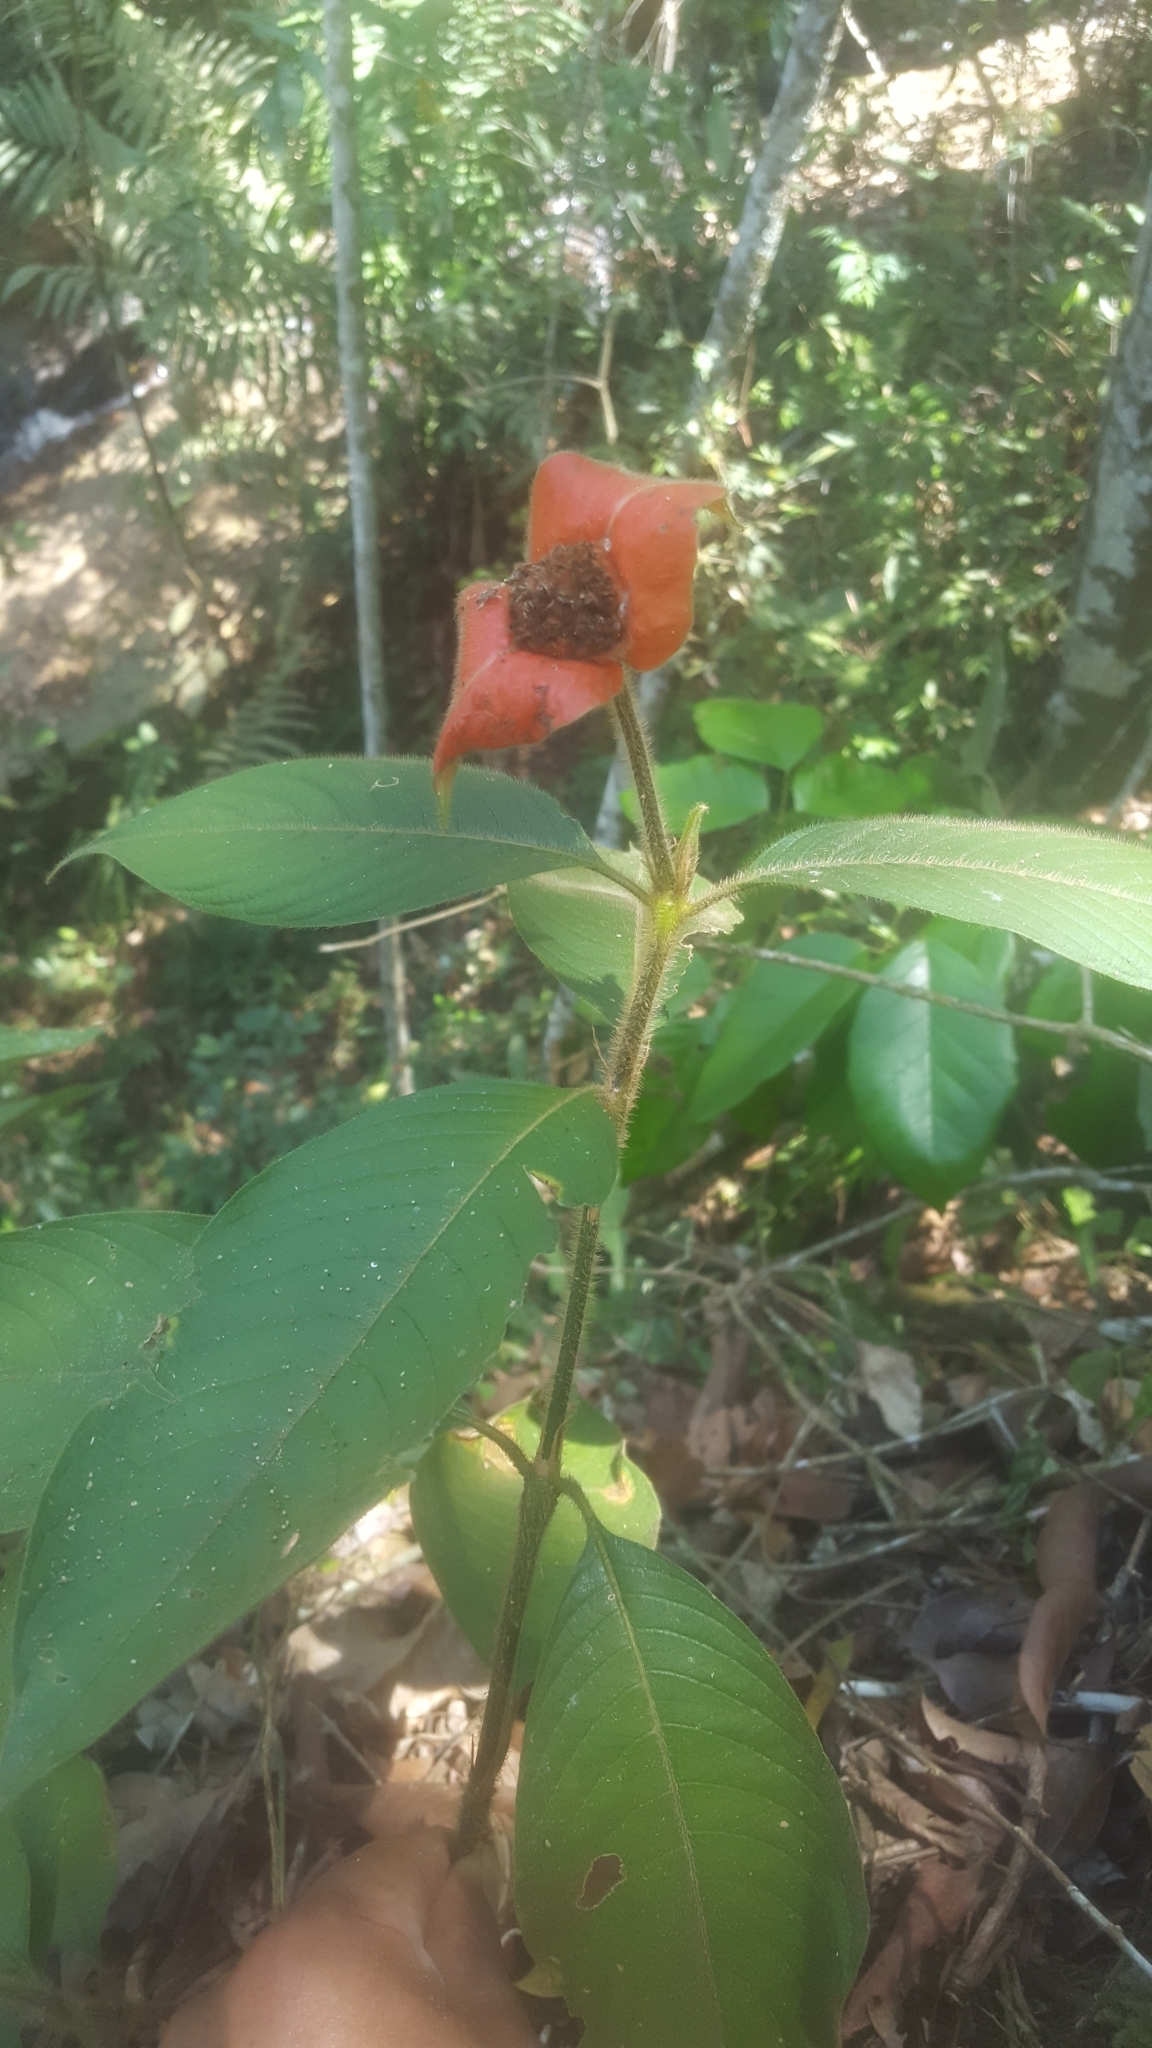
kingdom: Plantae
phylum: Tracheophyta
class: Magnoliopsida
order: Gentianales
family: Rubiaceae
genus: Palicourea
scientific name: Palicourea tomentosa
